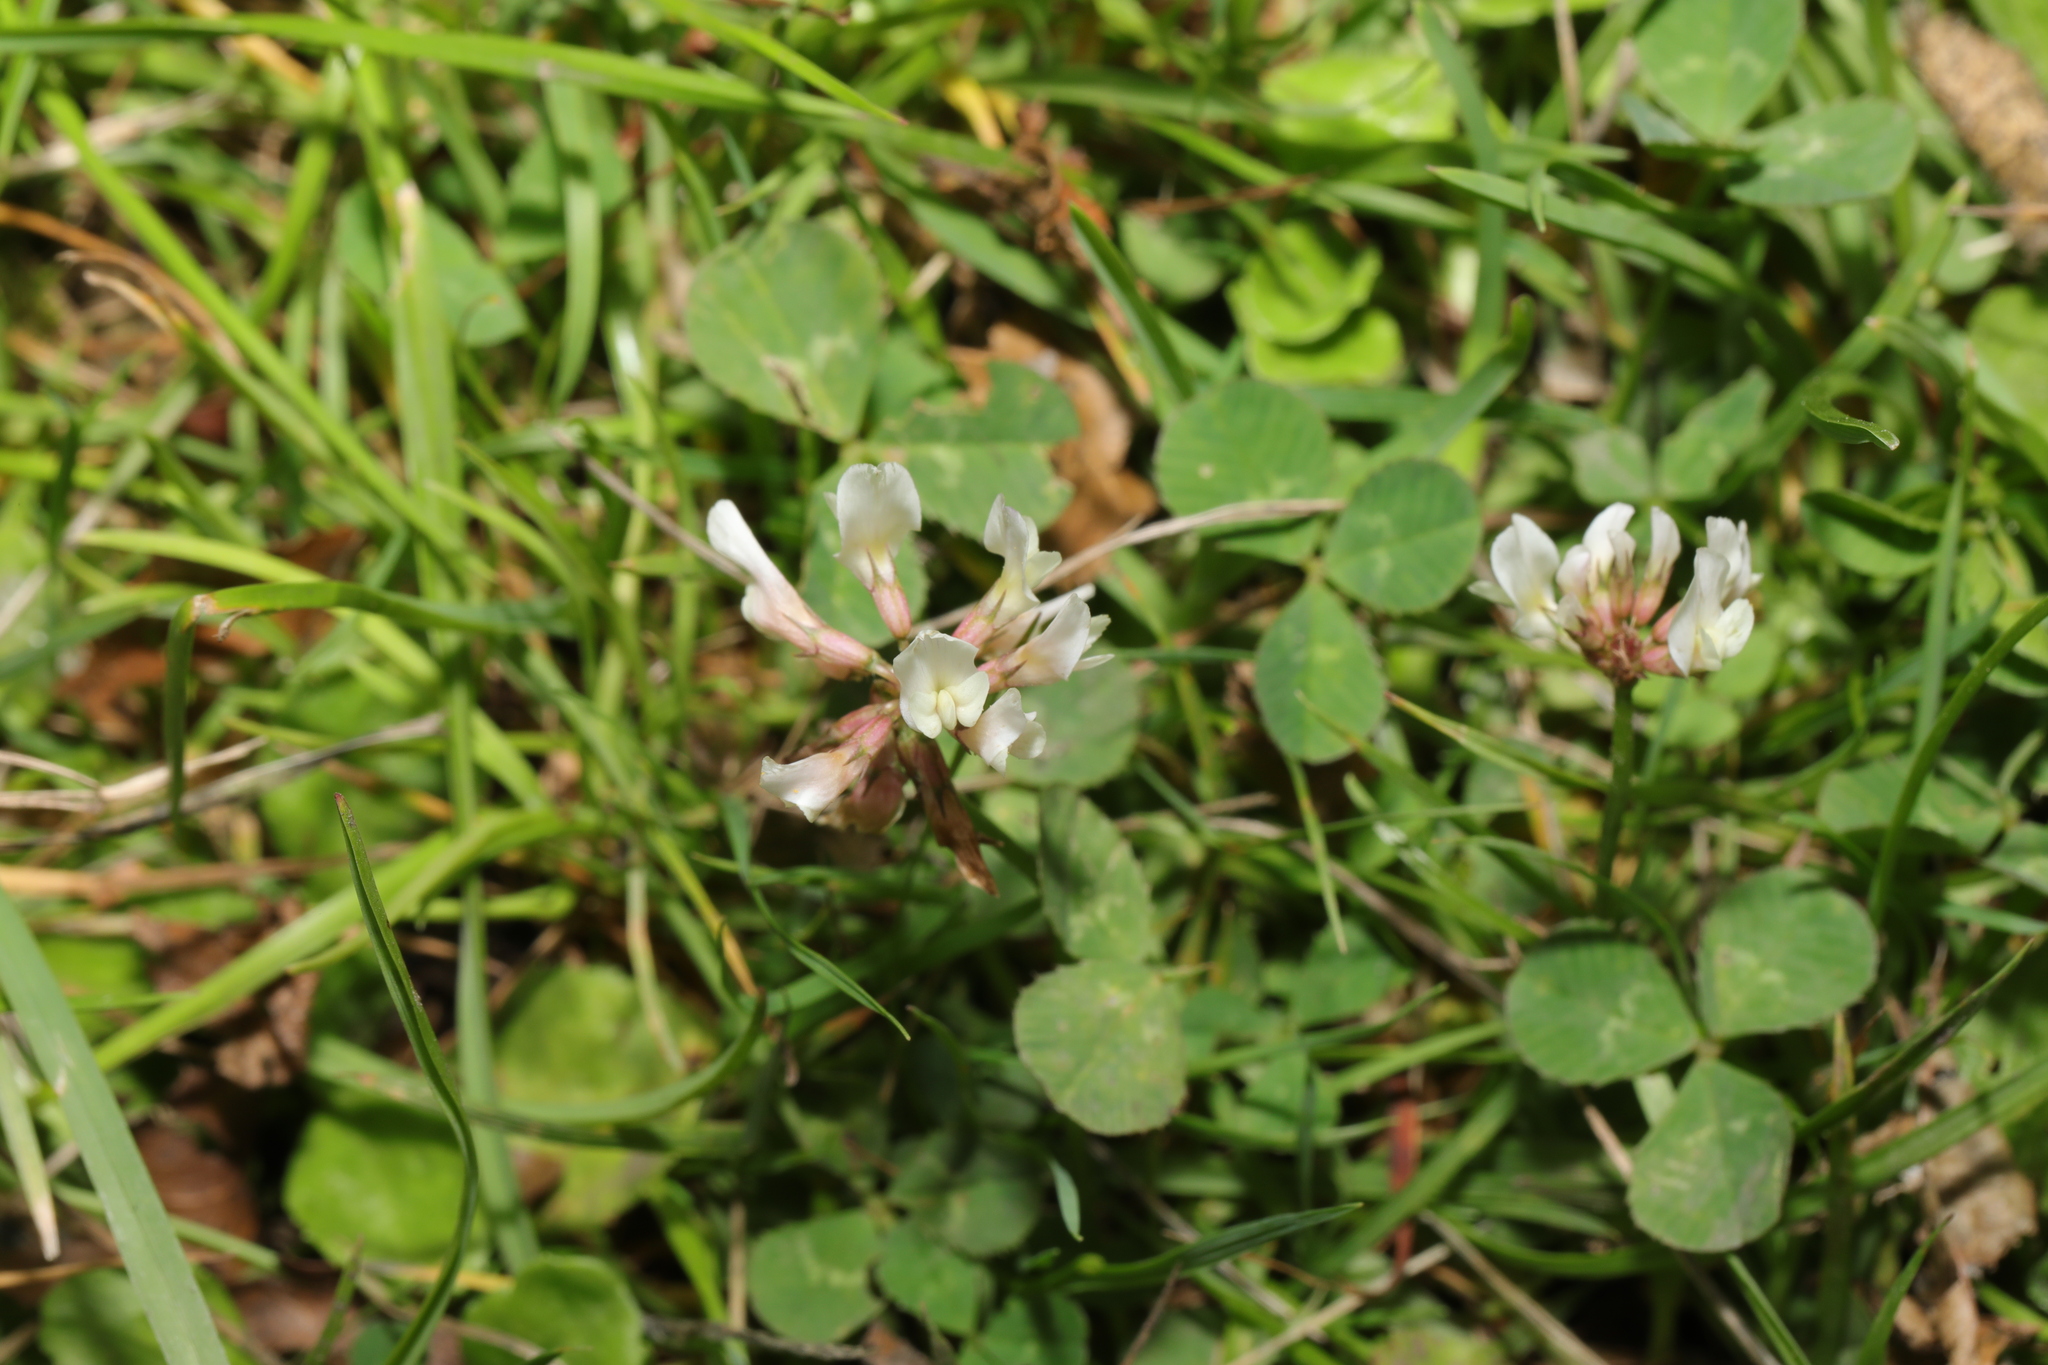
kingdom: Plantae
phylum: Tracheophyta
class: Magnoliopsida
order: Fabales
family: Fabaceae
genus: Trifolium
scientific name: Trifolium repens
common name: White clover
